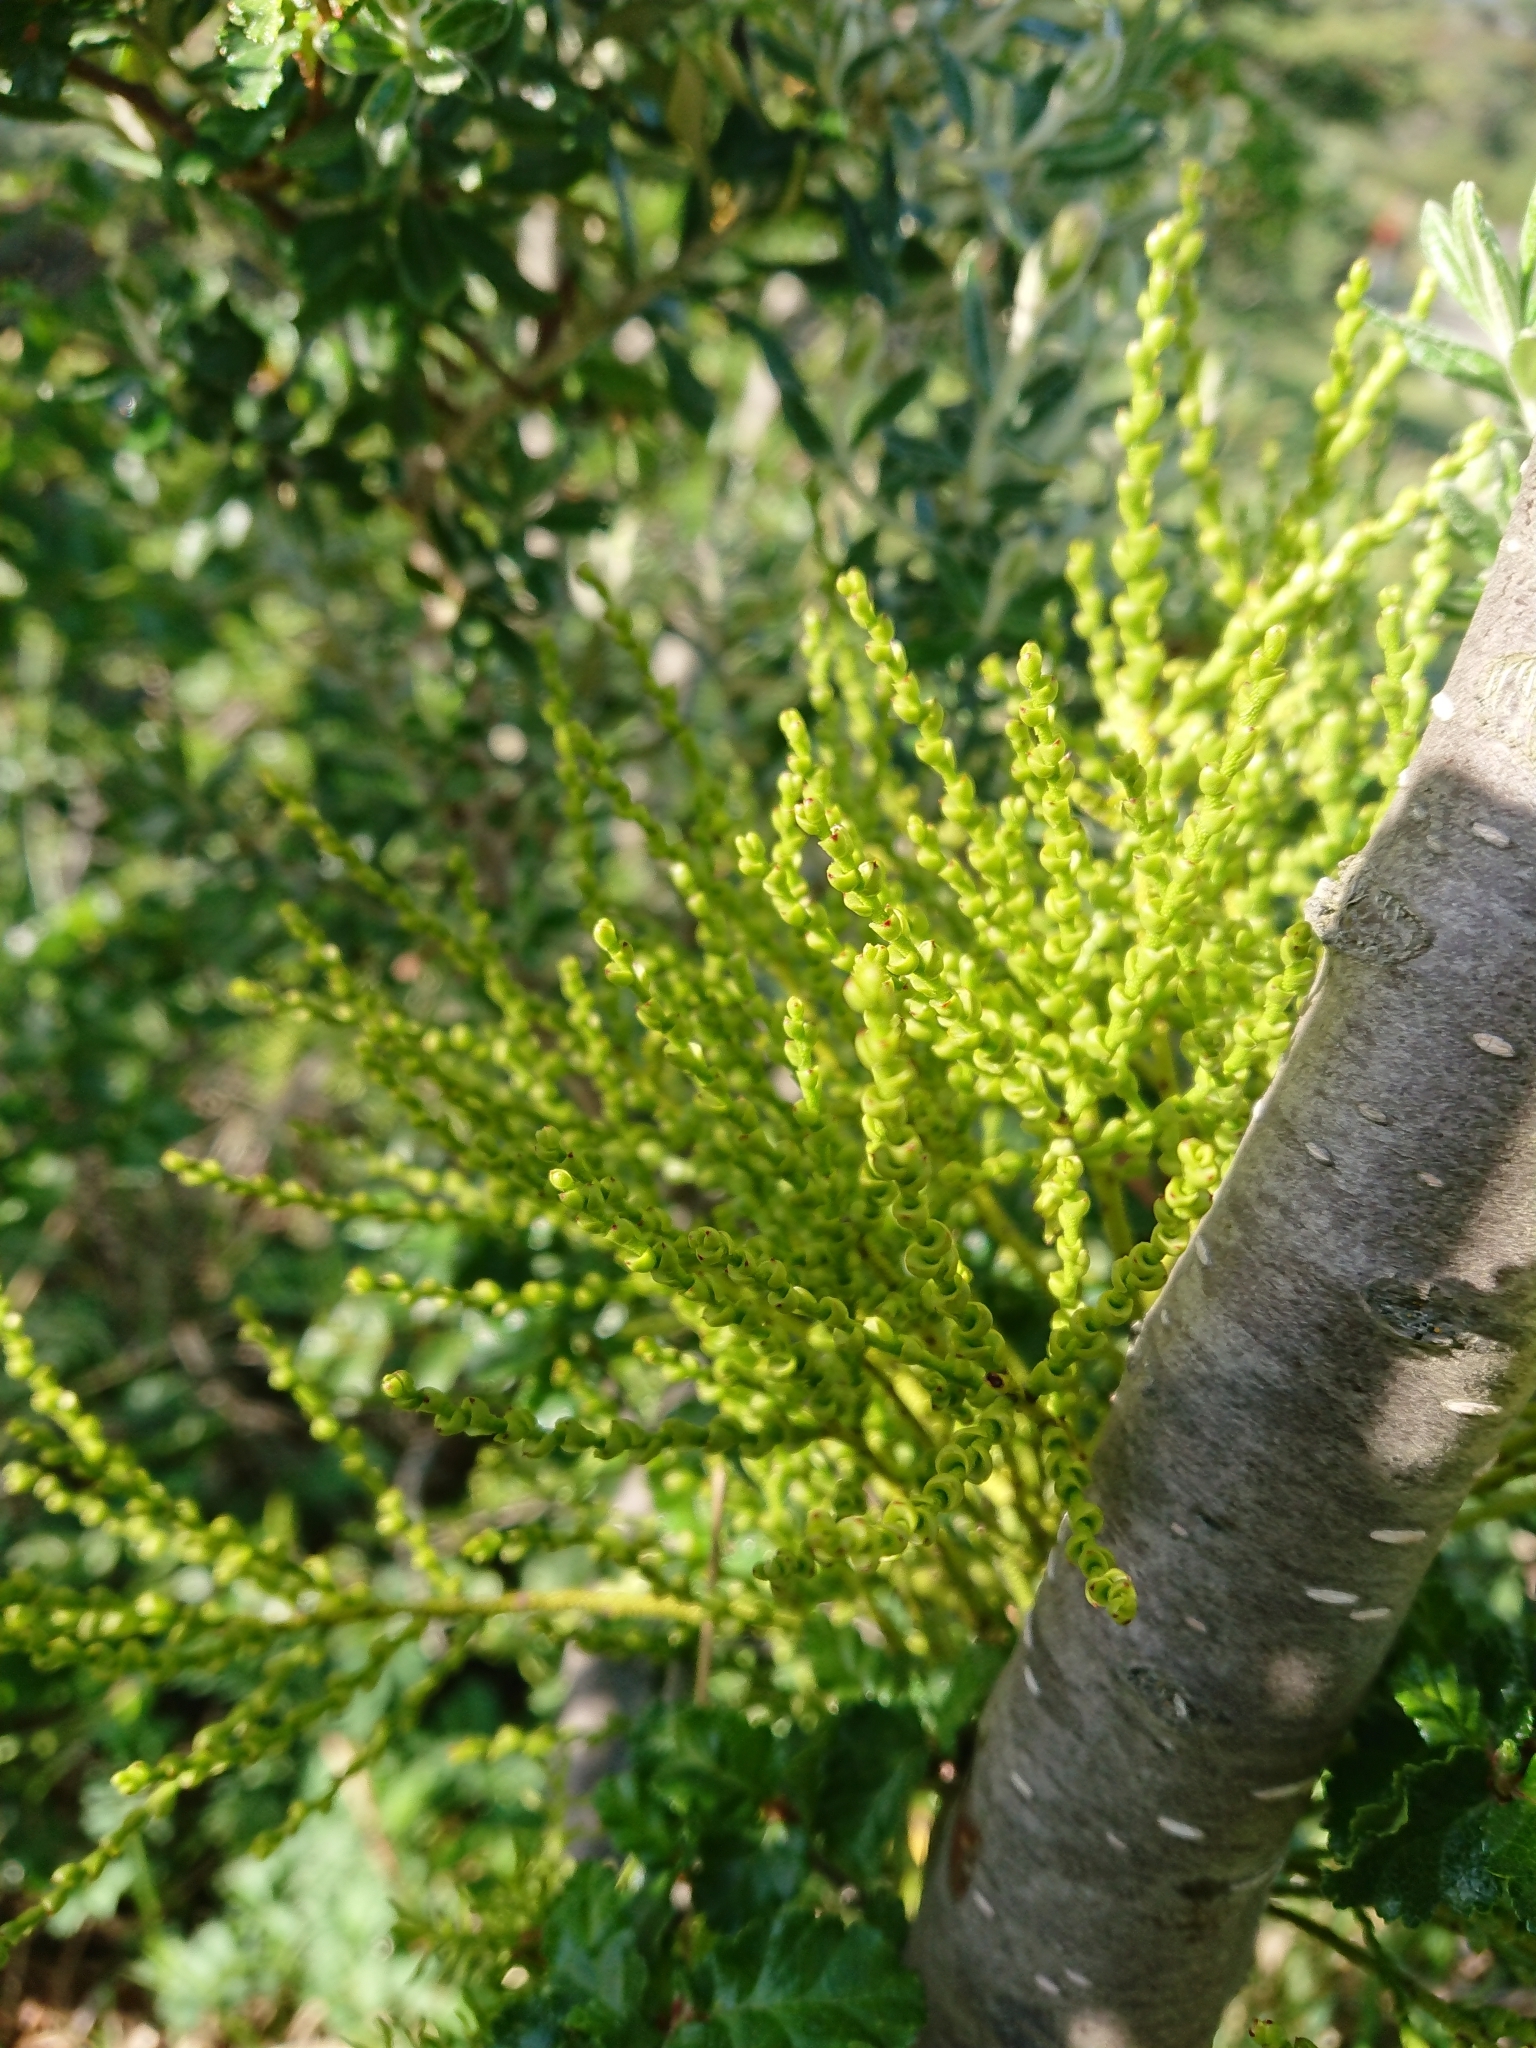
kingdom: Plantae
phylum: Tracheophyta
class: Magnoliopsida
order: Santalales
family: Misodendraceae
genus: Misodendrum
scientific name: Misodendrum punctulatum
